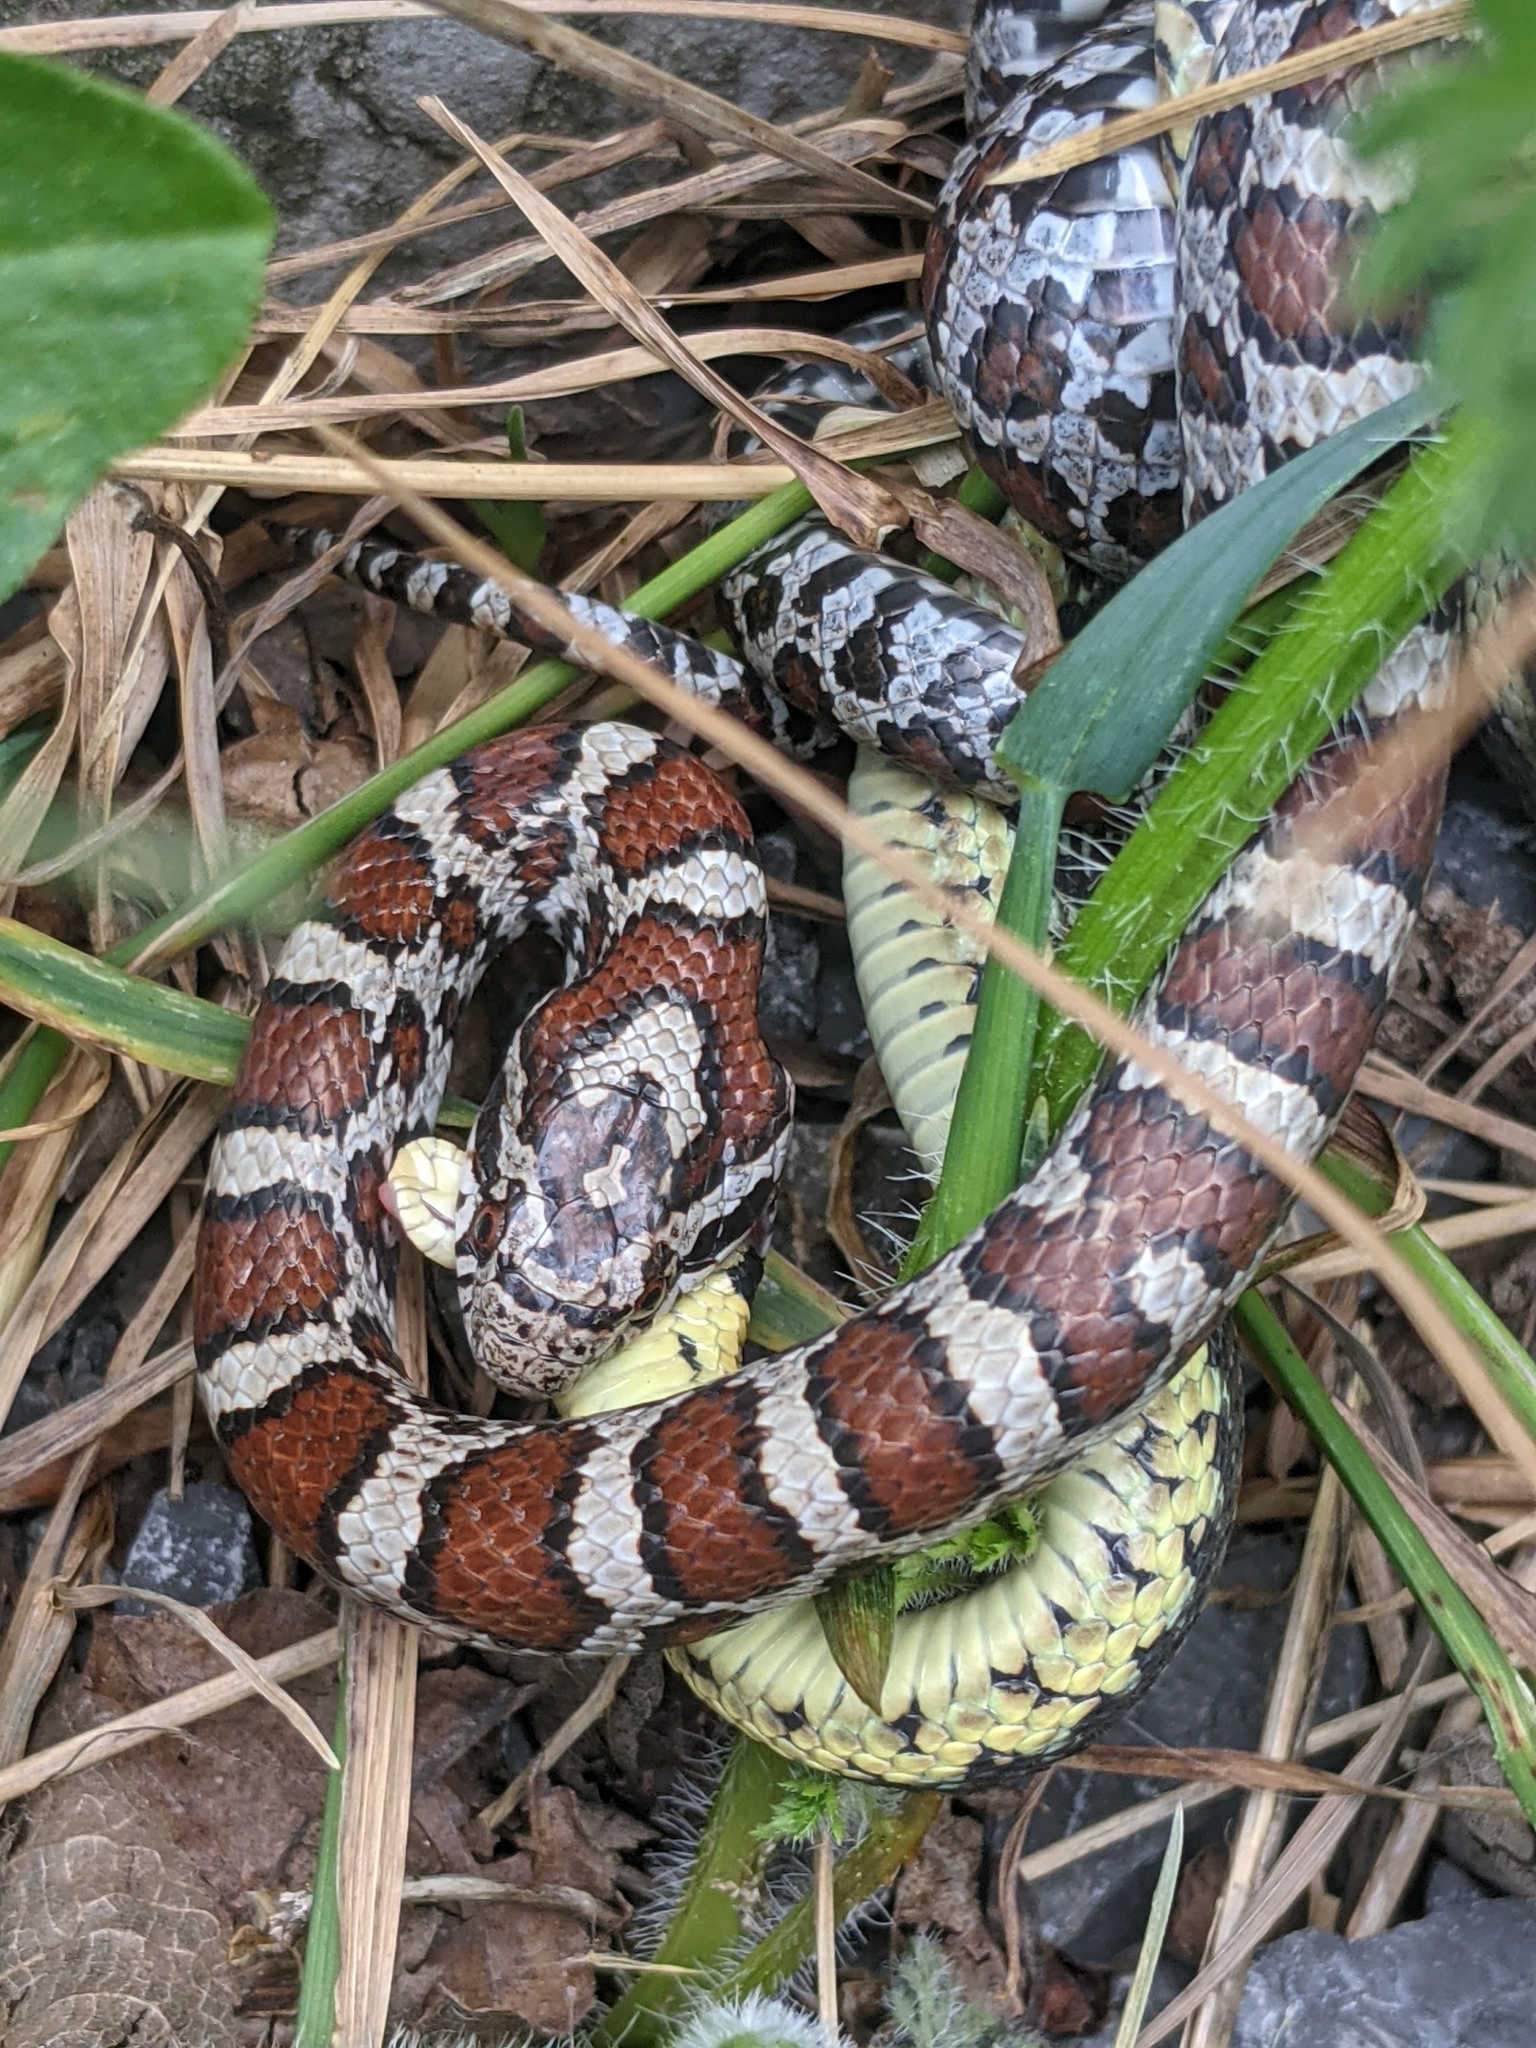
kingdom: Animalia
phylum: Chordata
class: Squamata
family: Colubridae
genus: Lampropeltis
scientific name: Lampropeltis triangulum
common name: Eastern milksnake
